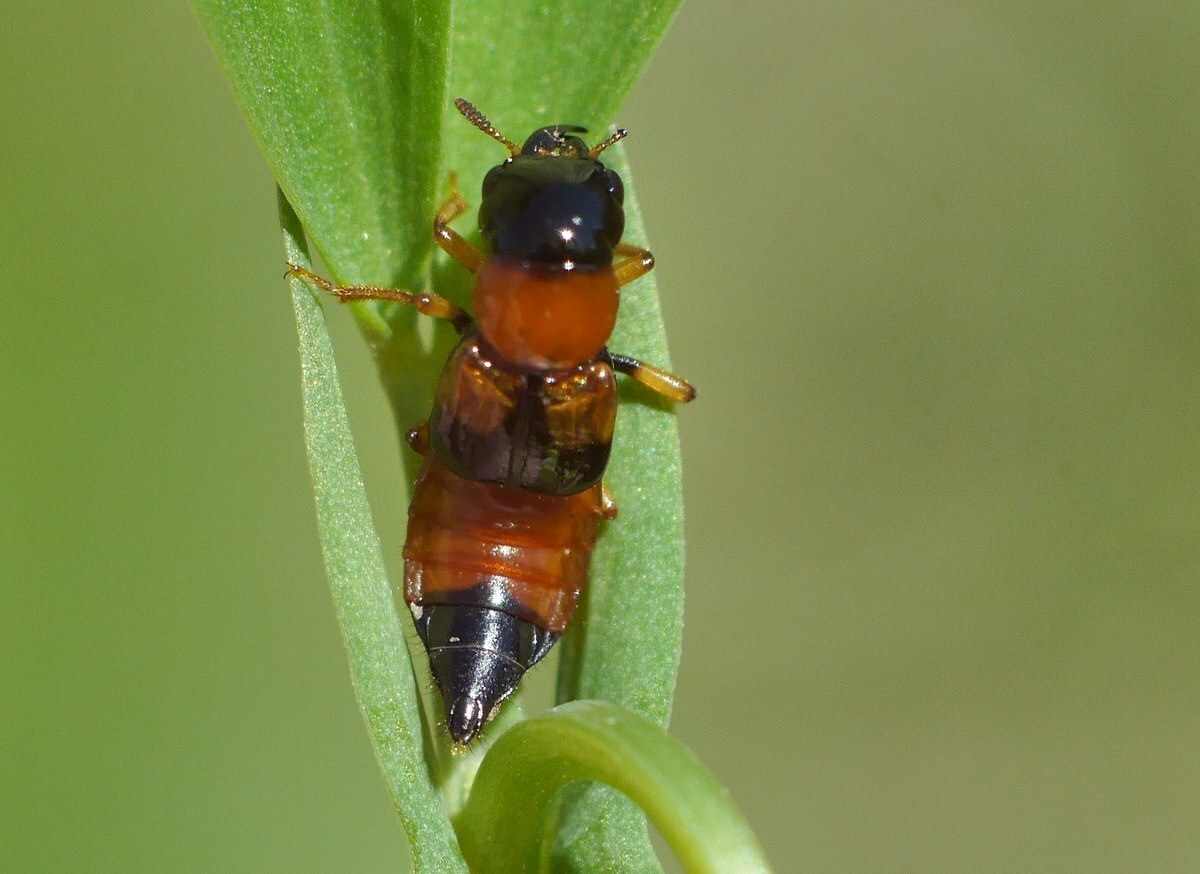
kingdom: Animalia
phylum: Arthropoda
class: Insecta
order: Coleoptera
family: Staphylinidae
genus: Oxyporus
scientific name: Oxyporus rufus
